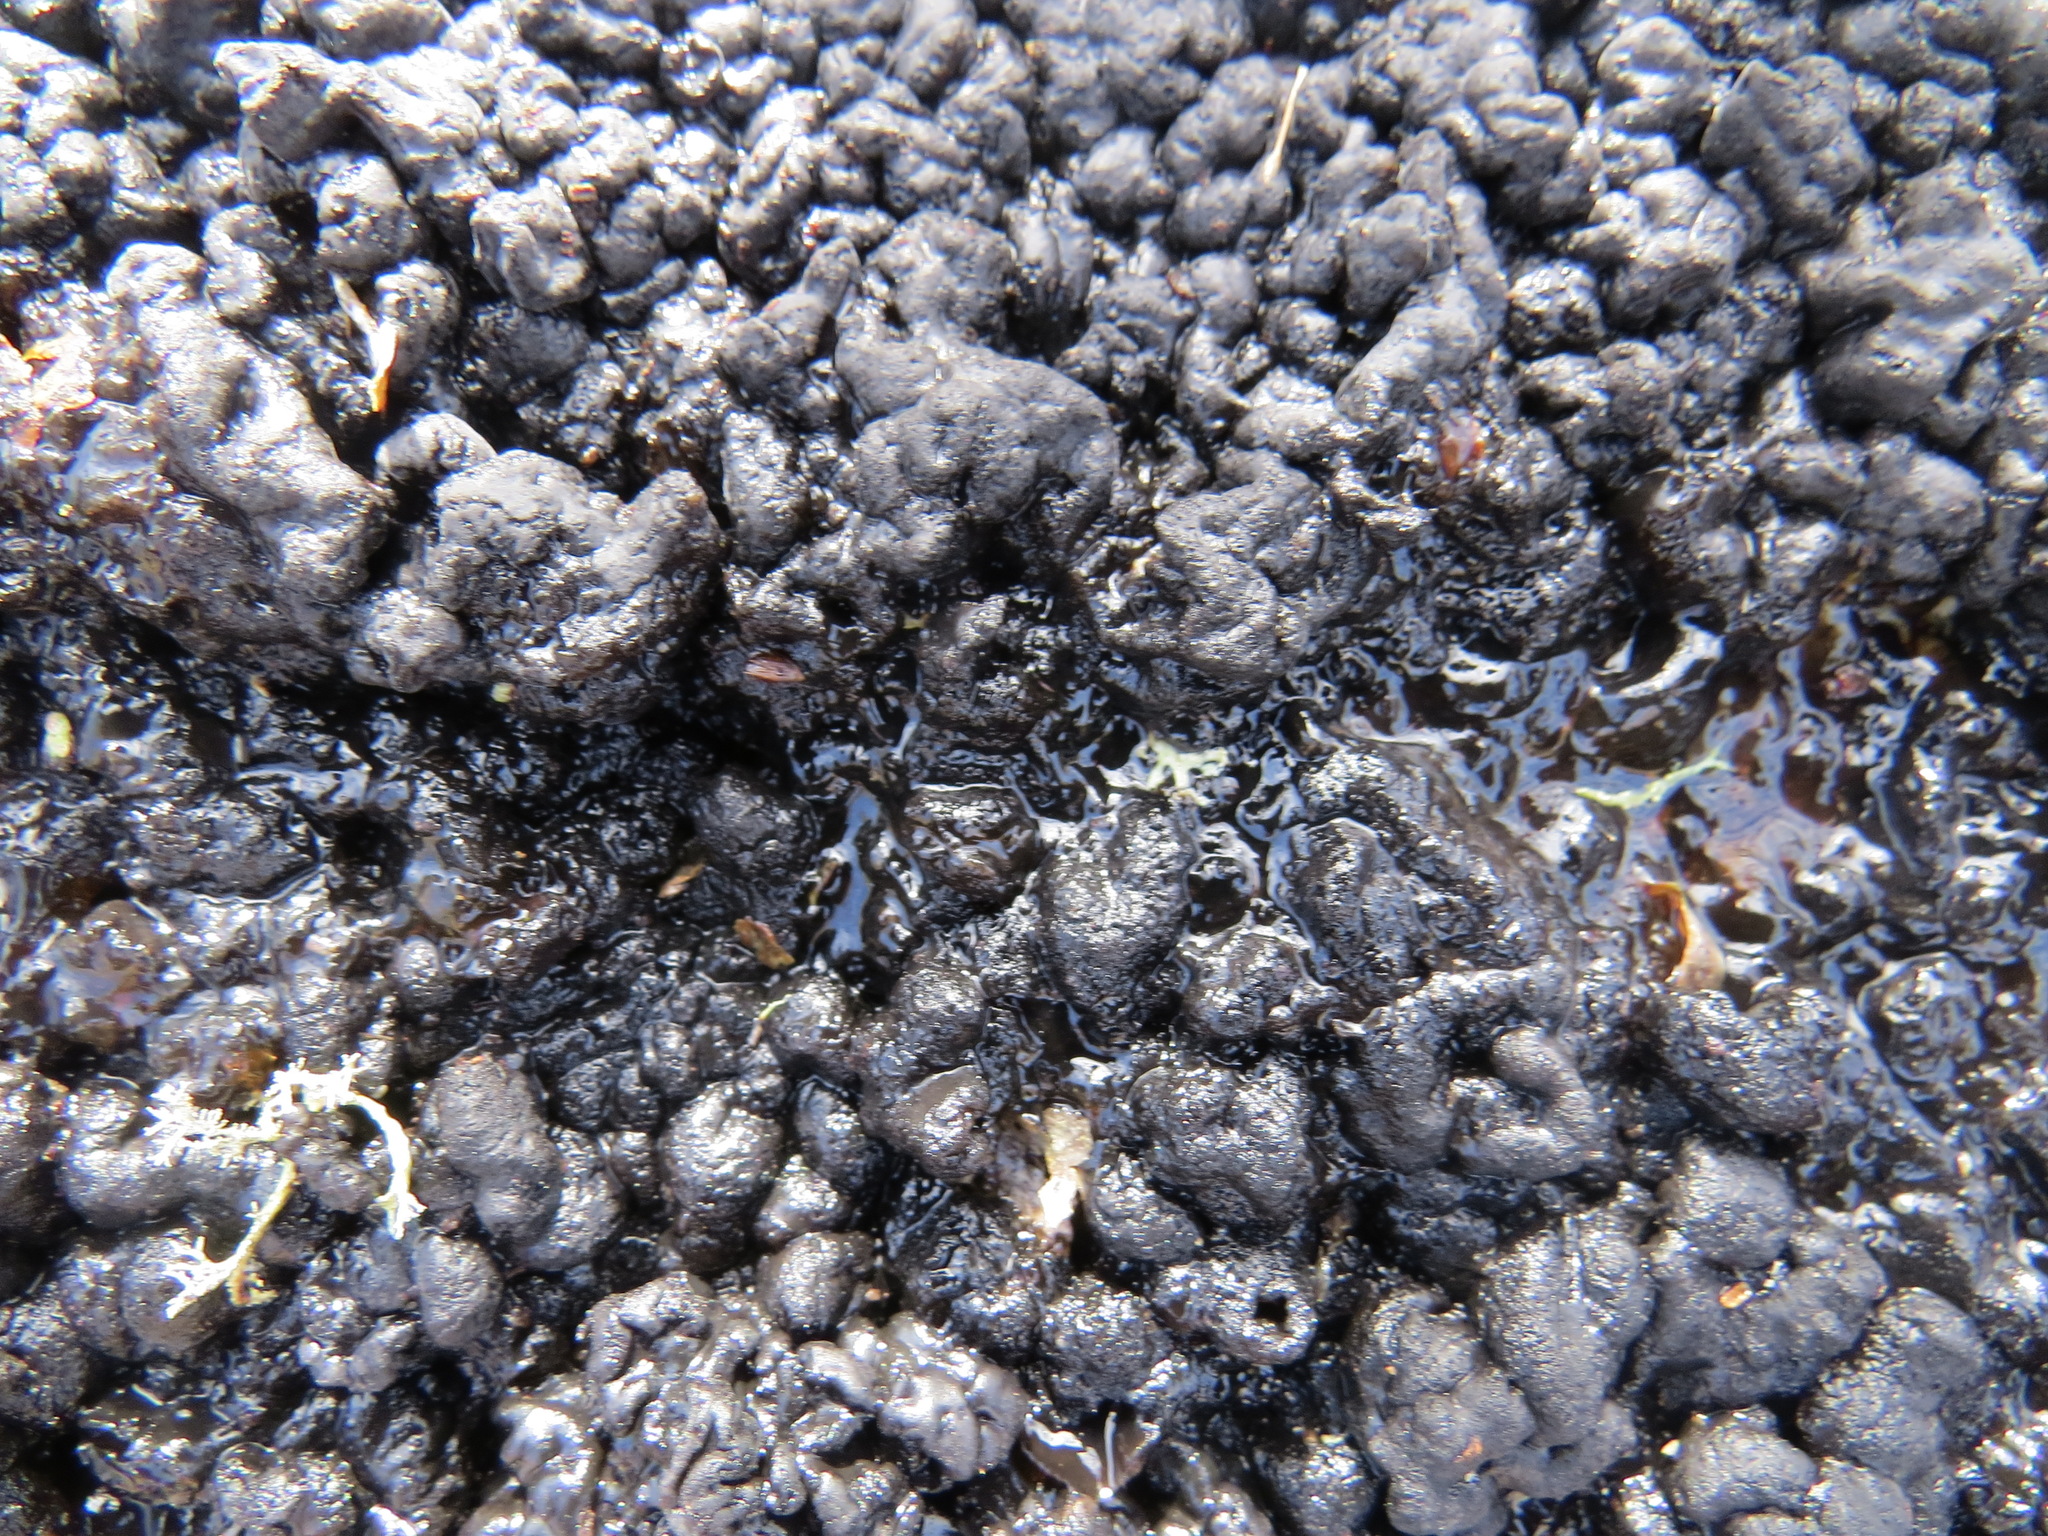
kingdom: Fungi
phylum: Basidiomycota
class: Agaricomycetes
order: Auriculariales
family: Auriculariaceae
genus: Exidia
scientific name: Exidia glandulosa
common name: Witches' butter
